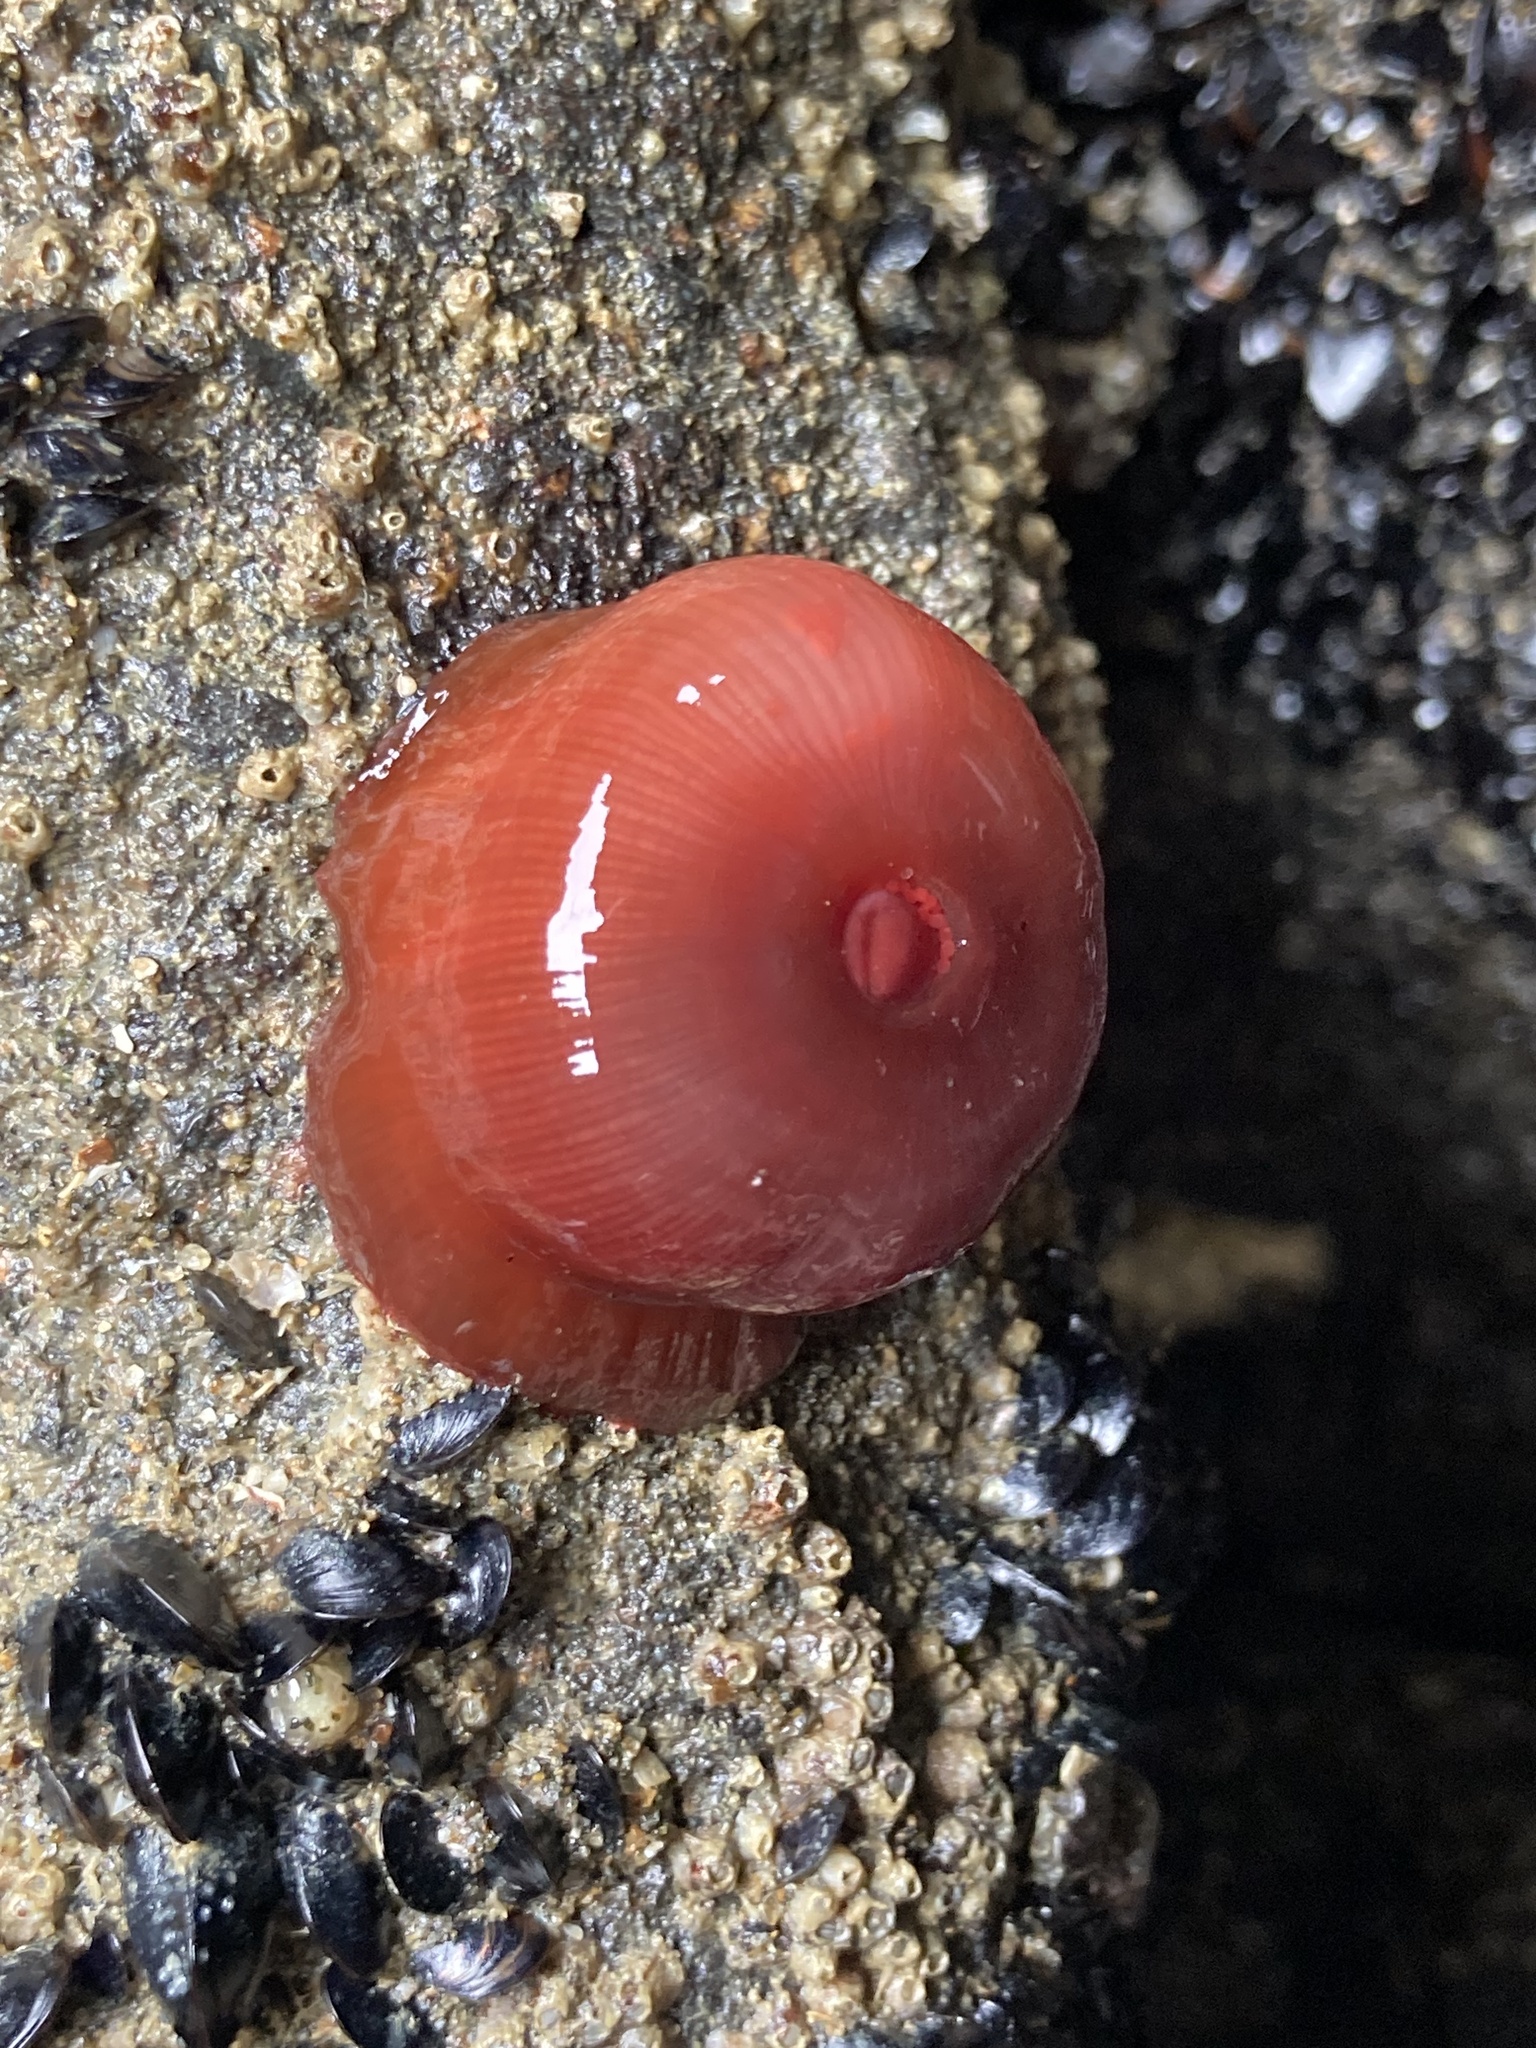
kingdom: Animalia
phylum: Cnidaria
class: Anthozoa
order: Actiniaria
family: Actiniidae
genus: Actinia
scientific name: Actinia tenebrosa
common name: Waratah anemone
